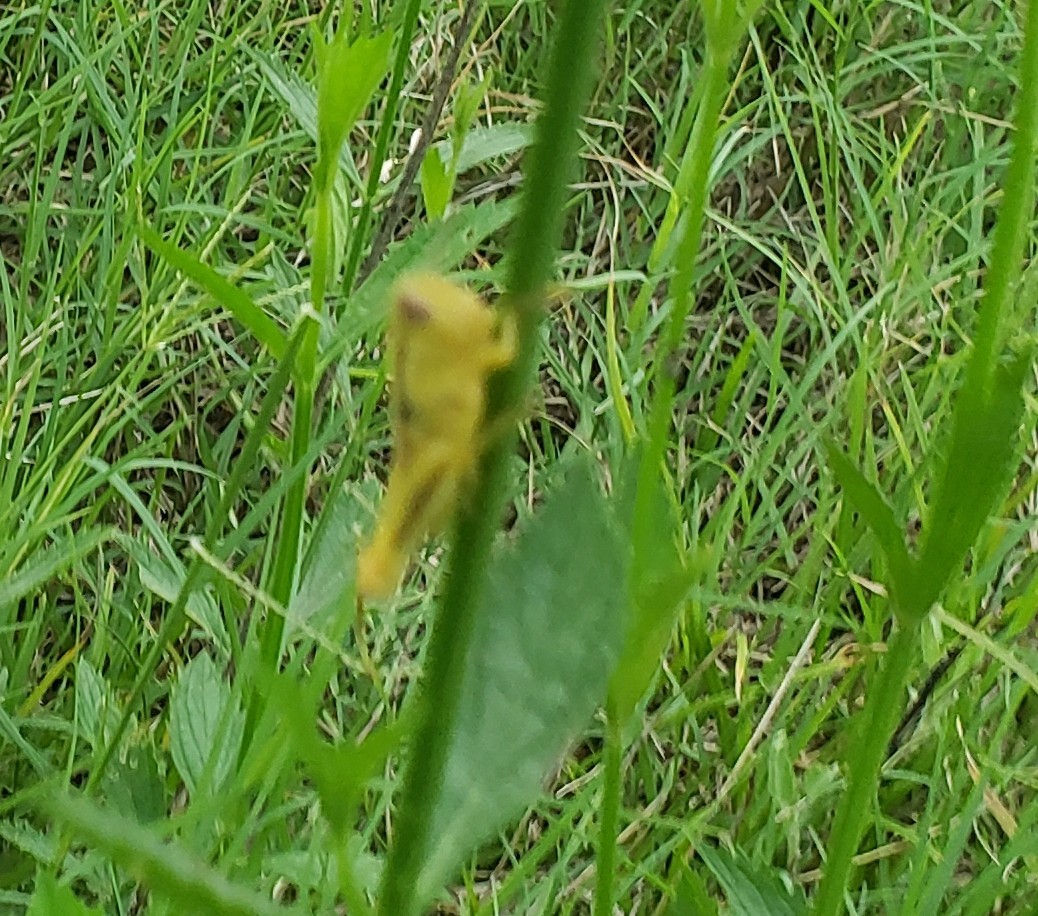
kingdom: Animalia
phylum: Arthropoda
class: Insecta
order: Orthoptera
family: Acrididae
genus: Melanoplus
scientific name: Melanoplus differentialis
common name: Differential grasshopper
